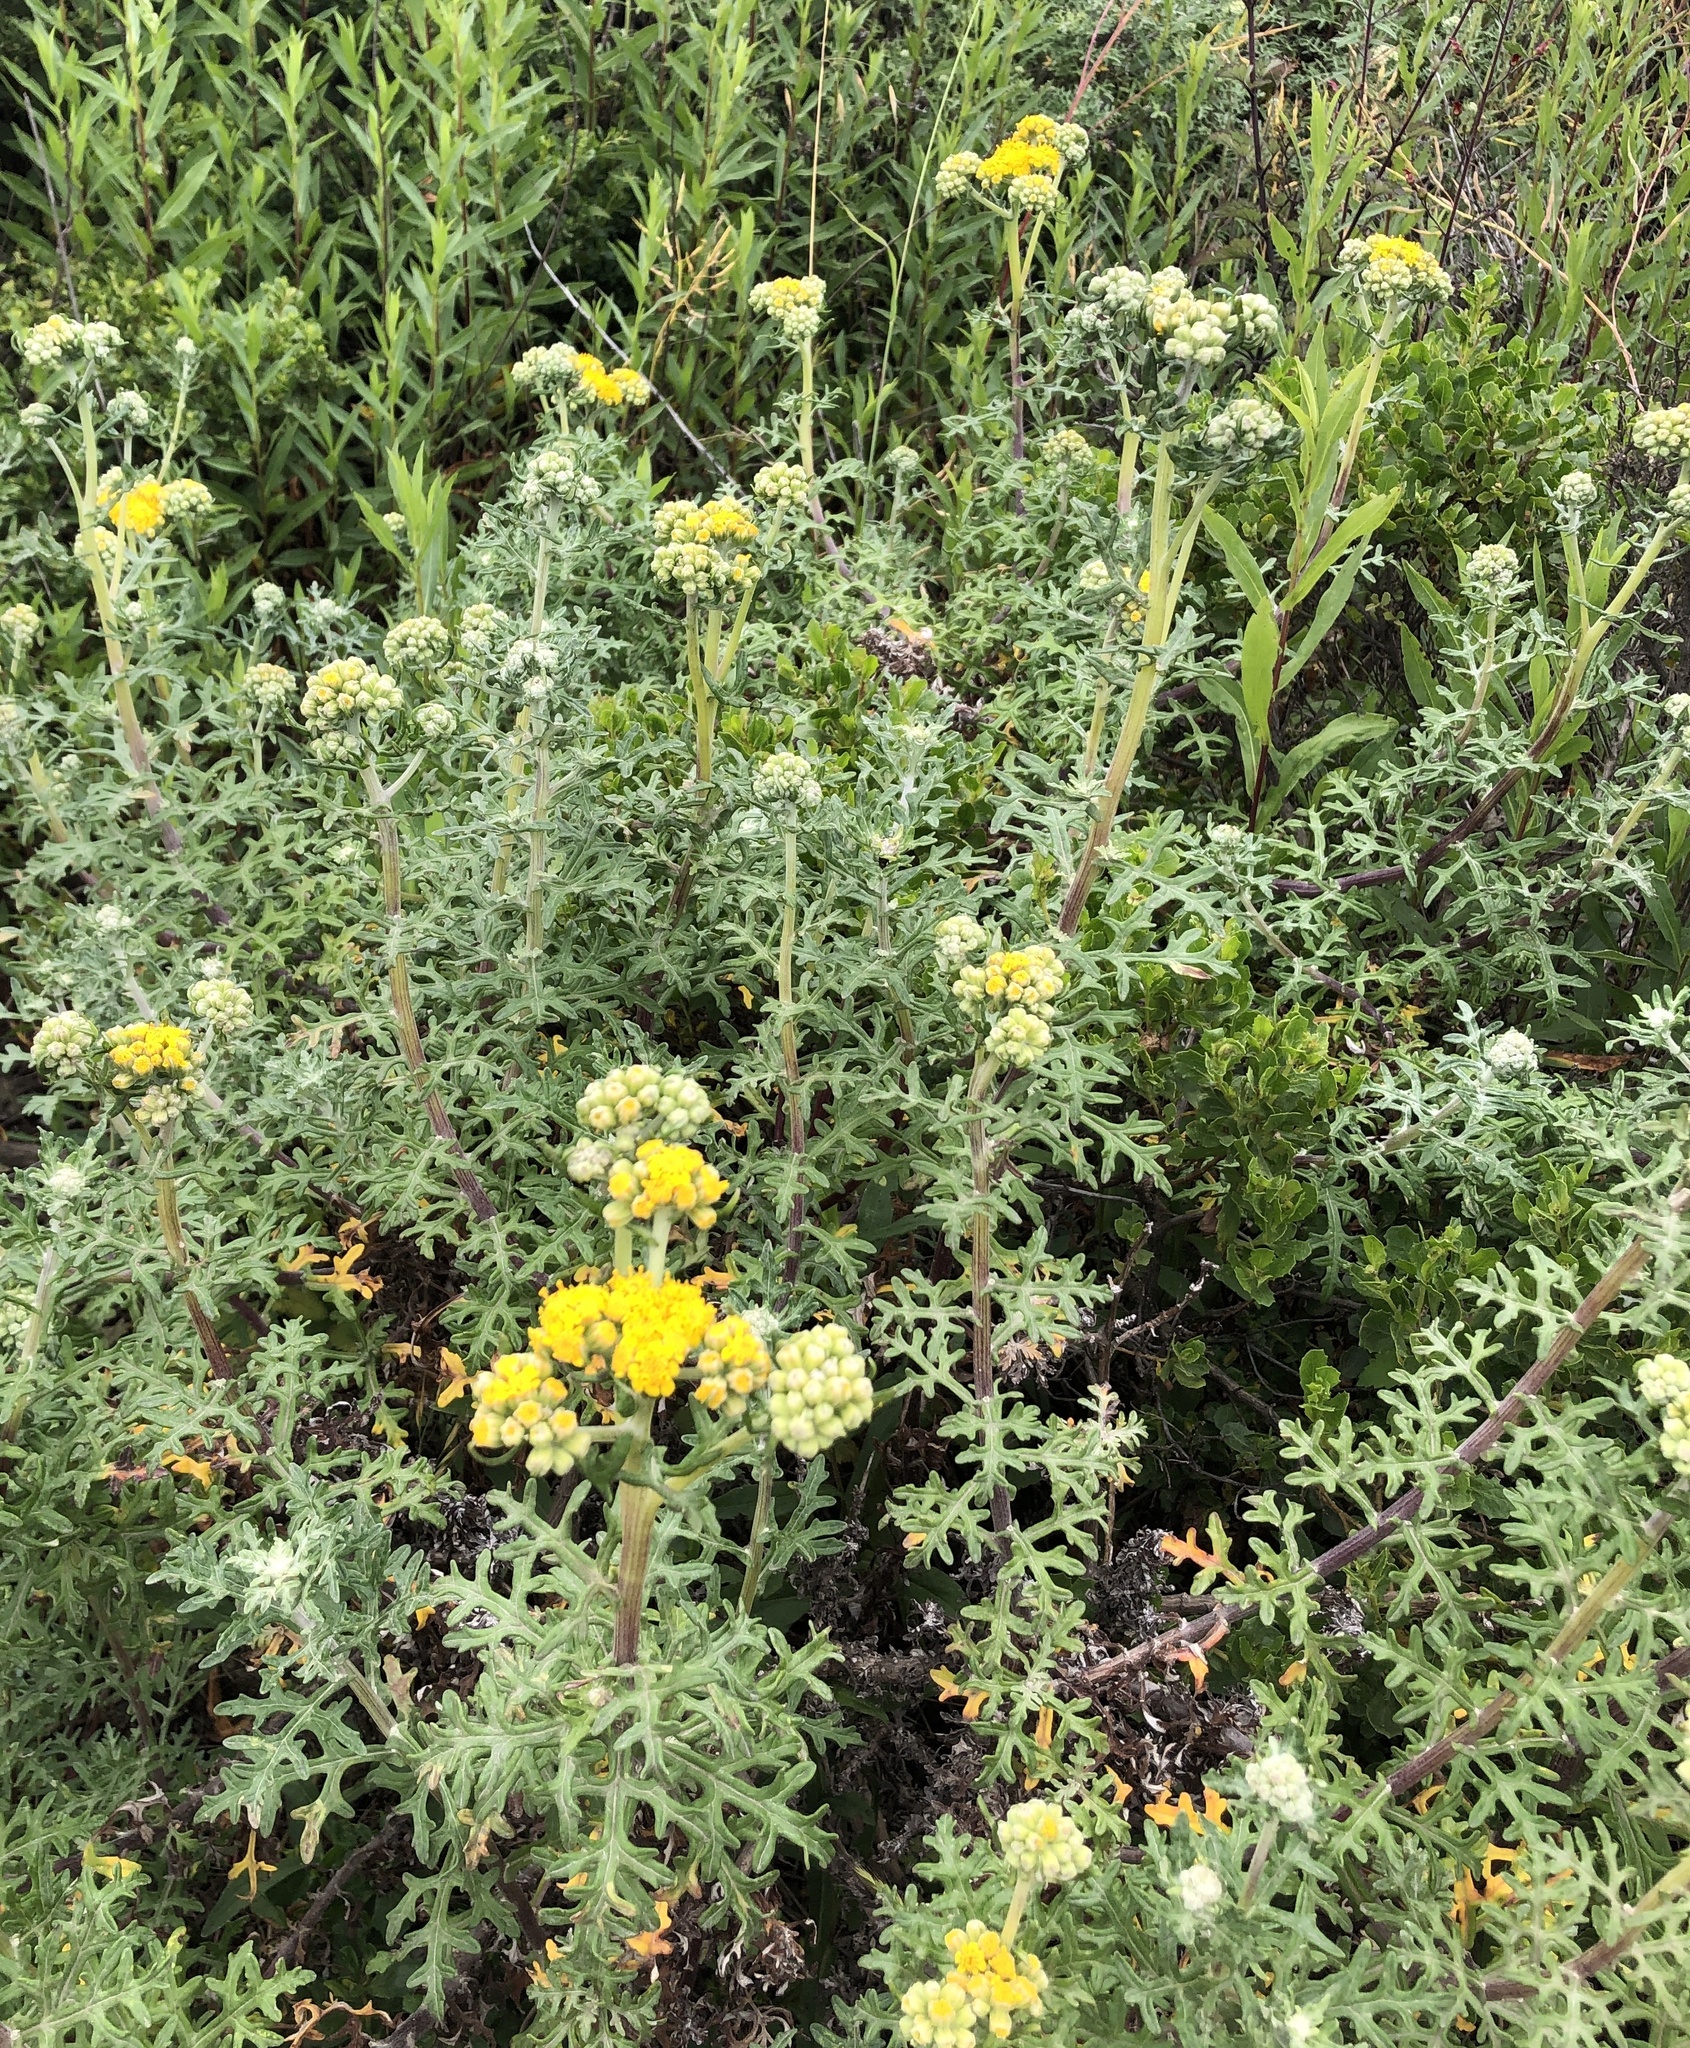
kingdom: Plantae
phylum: Tracheophyta
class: Magnoliopsida
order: Asterales
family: Asteraceae
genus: Eriophyllum
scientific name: Eriophyllum staechadifolium
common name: Lizardtail
